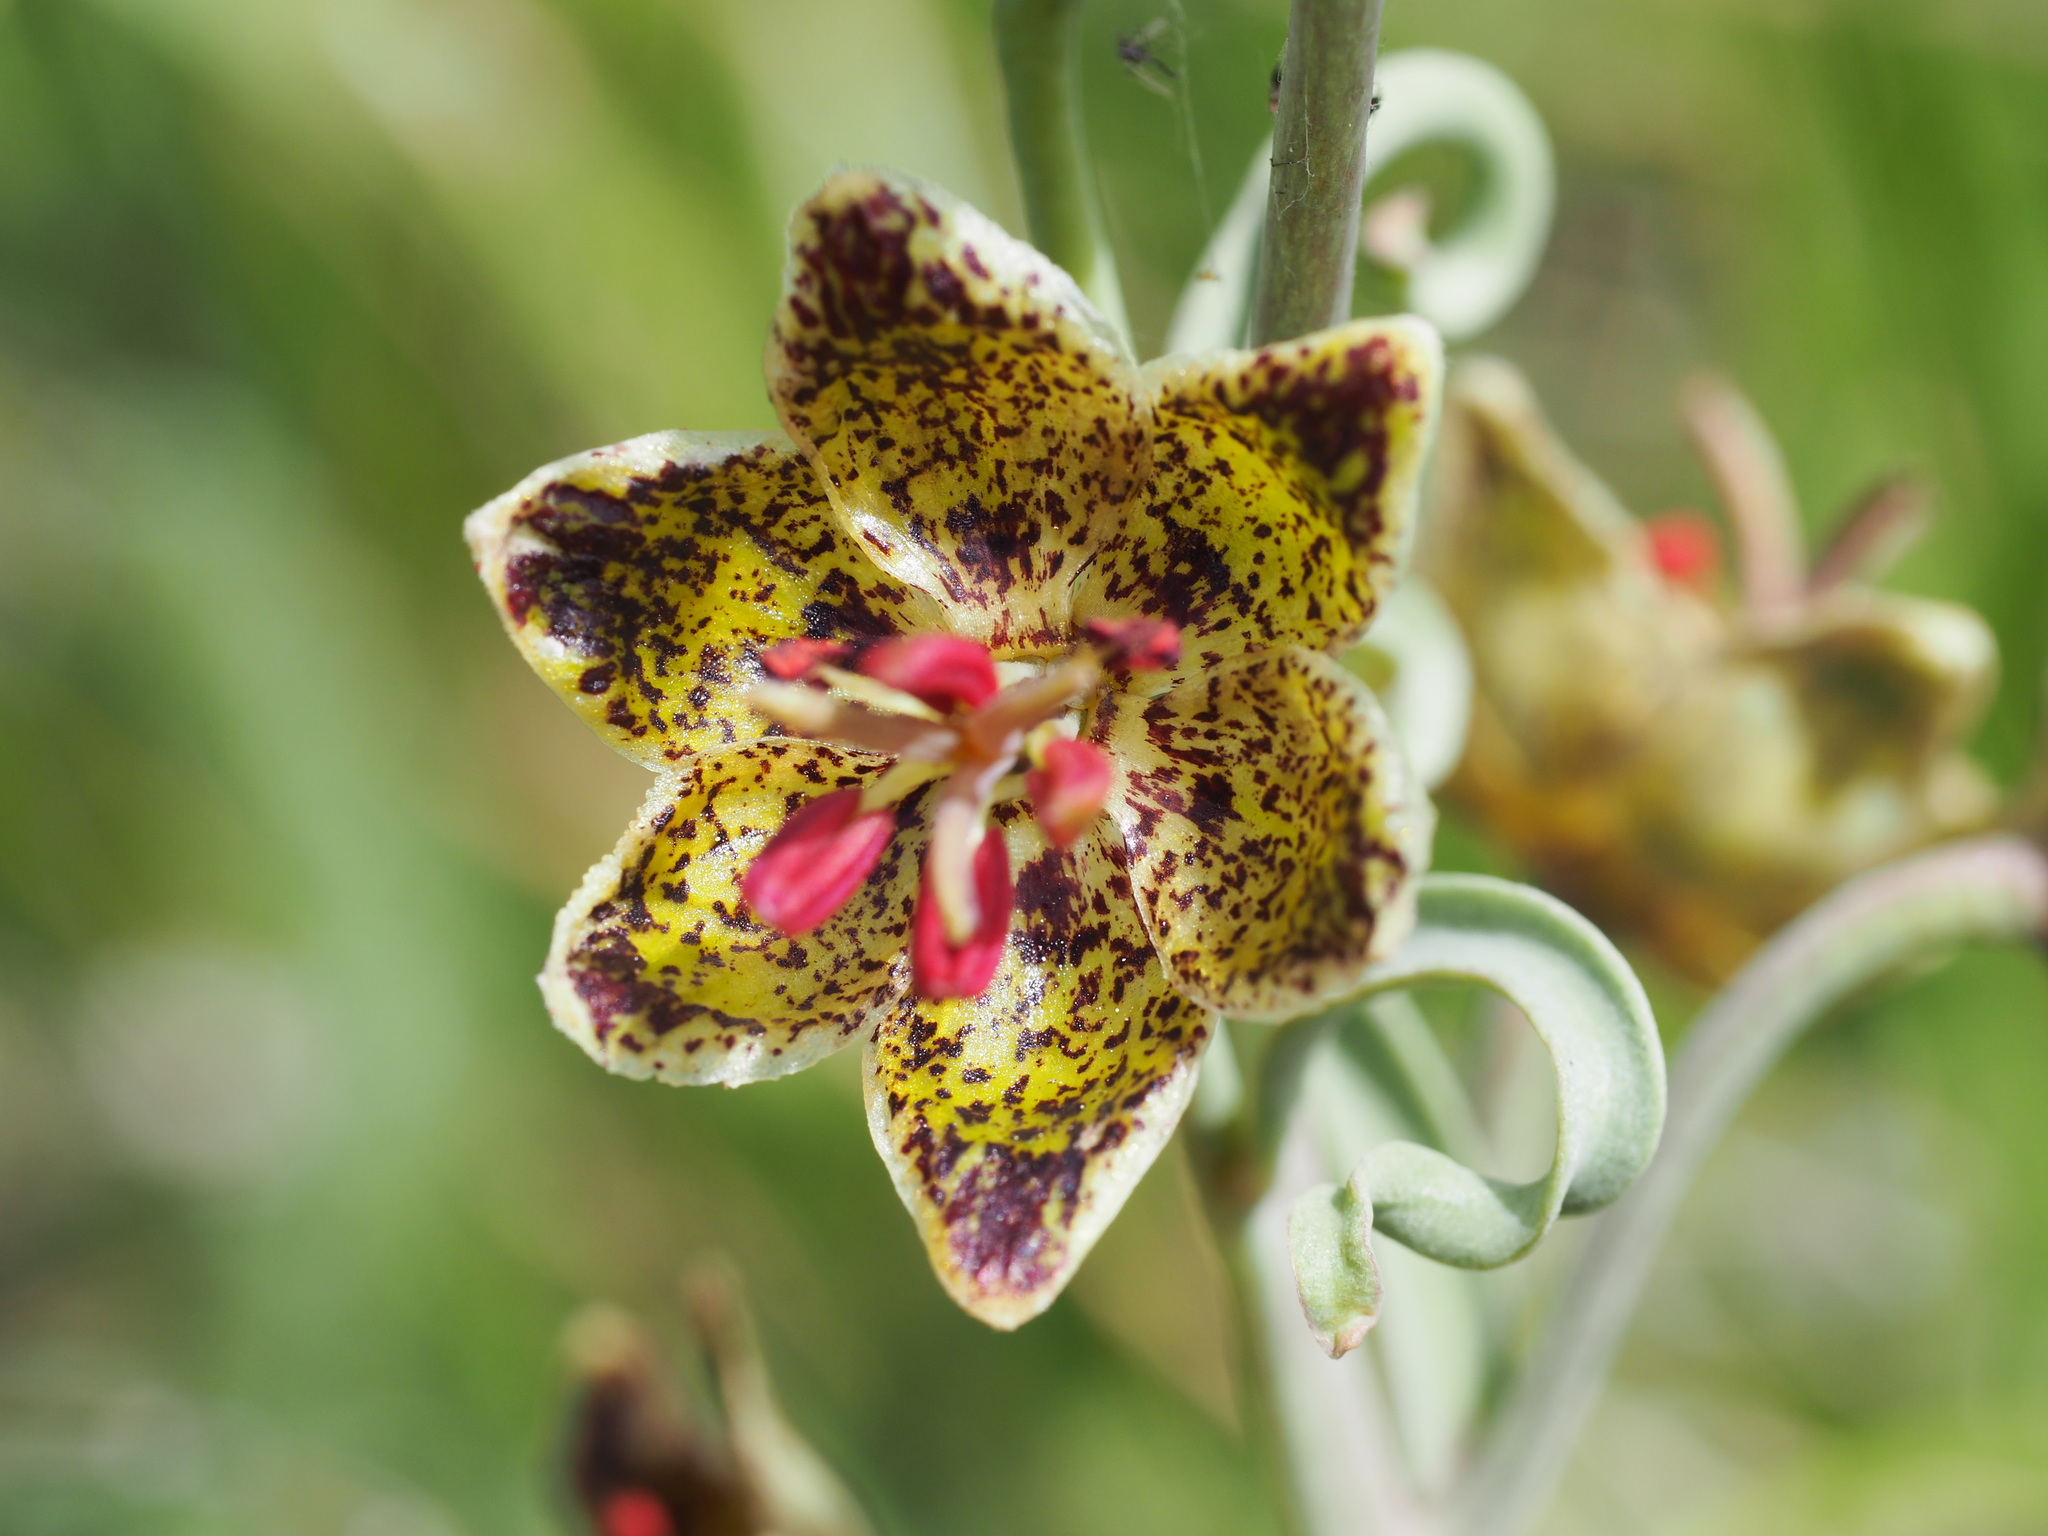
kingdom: Plantae
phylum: Tracheophyta
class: Liliopsida
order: Liliales
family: Liliaceae
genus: Fritillaria
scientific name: Fritillaria pinetorum
